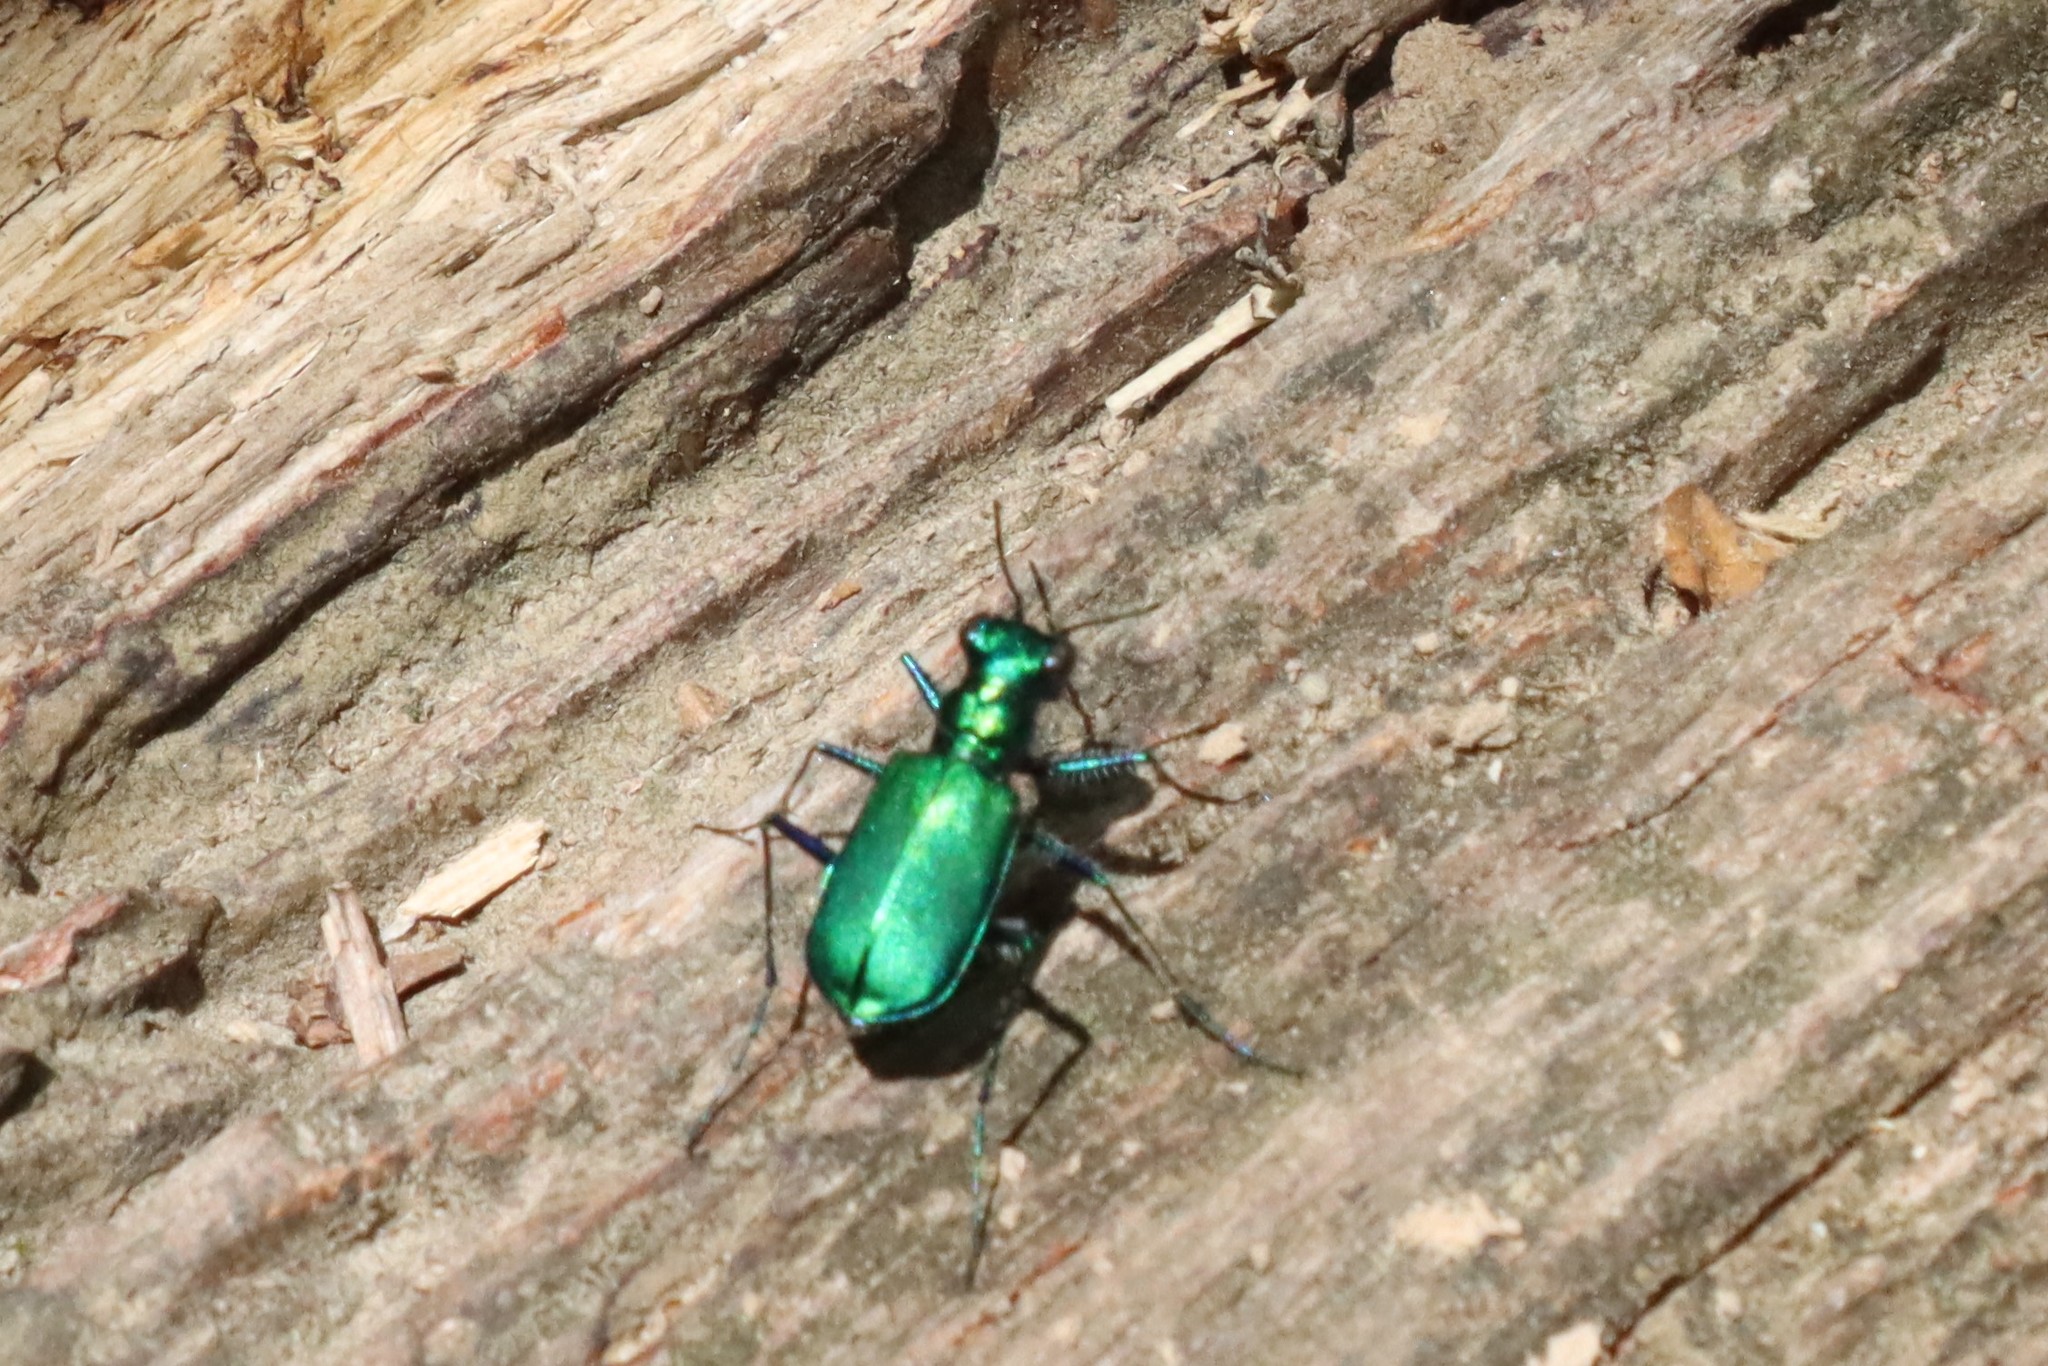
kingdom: Animalia
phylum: Arthropoda
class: Insecta
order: Coleoptera
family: Carabidae
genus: Cicindela
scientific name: Cicindela sexguttata
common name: Six-spotted tiger beetle
